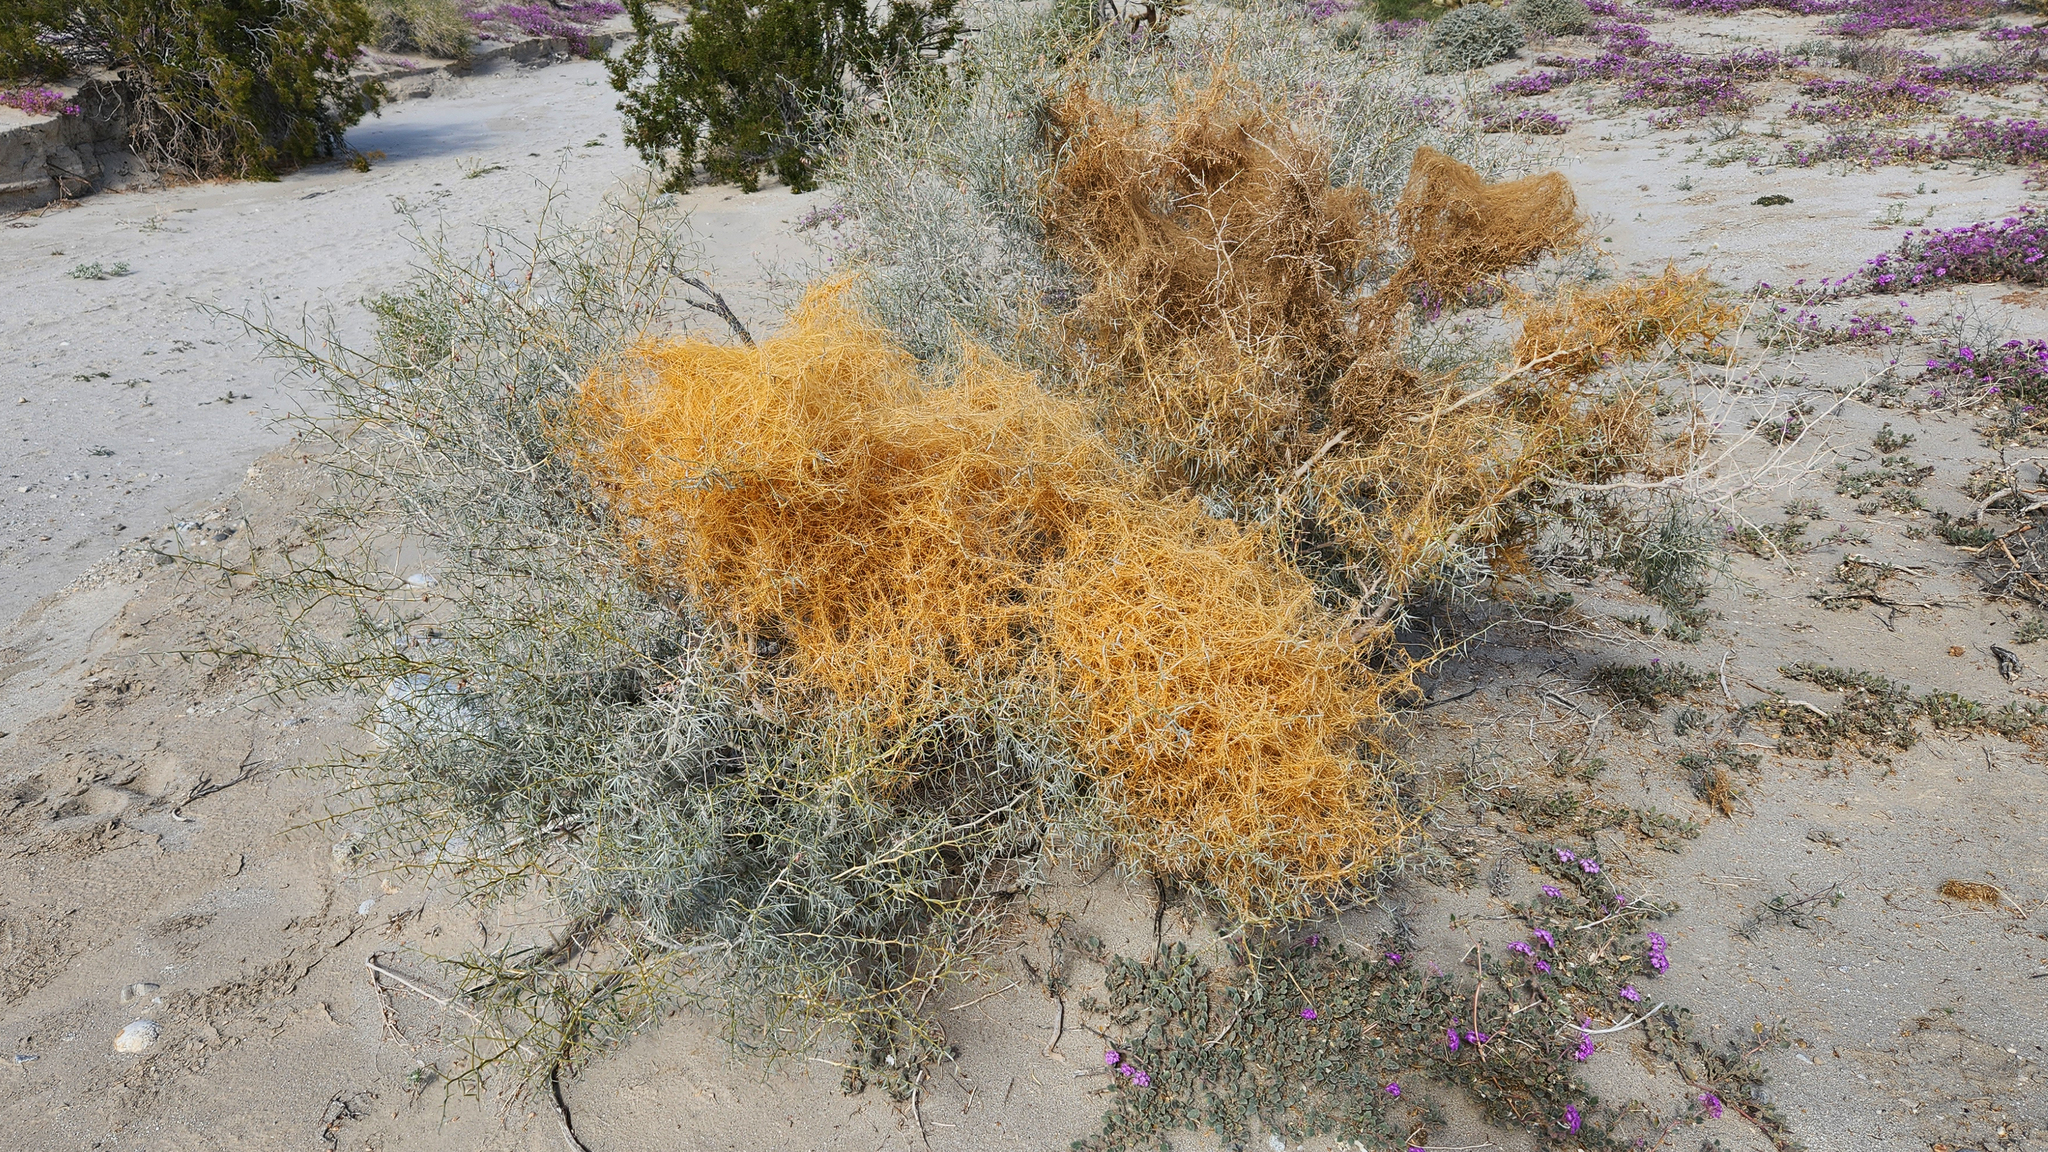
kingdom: Plantae
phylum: Tracheophyta
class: Magnoliopsida
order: Solanales
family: Convolvulaceae
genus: Cuscuta
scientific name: Cuscuta psorothamnensis
